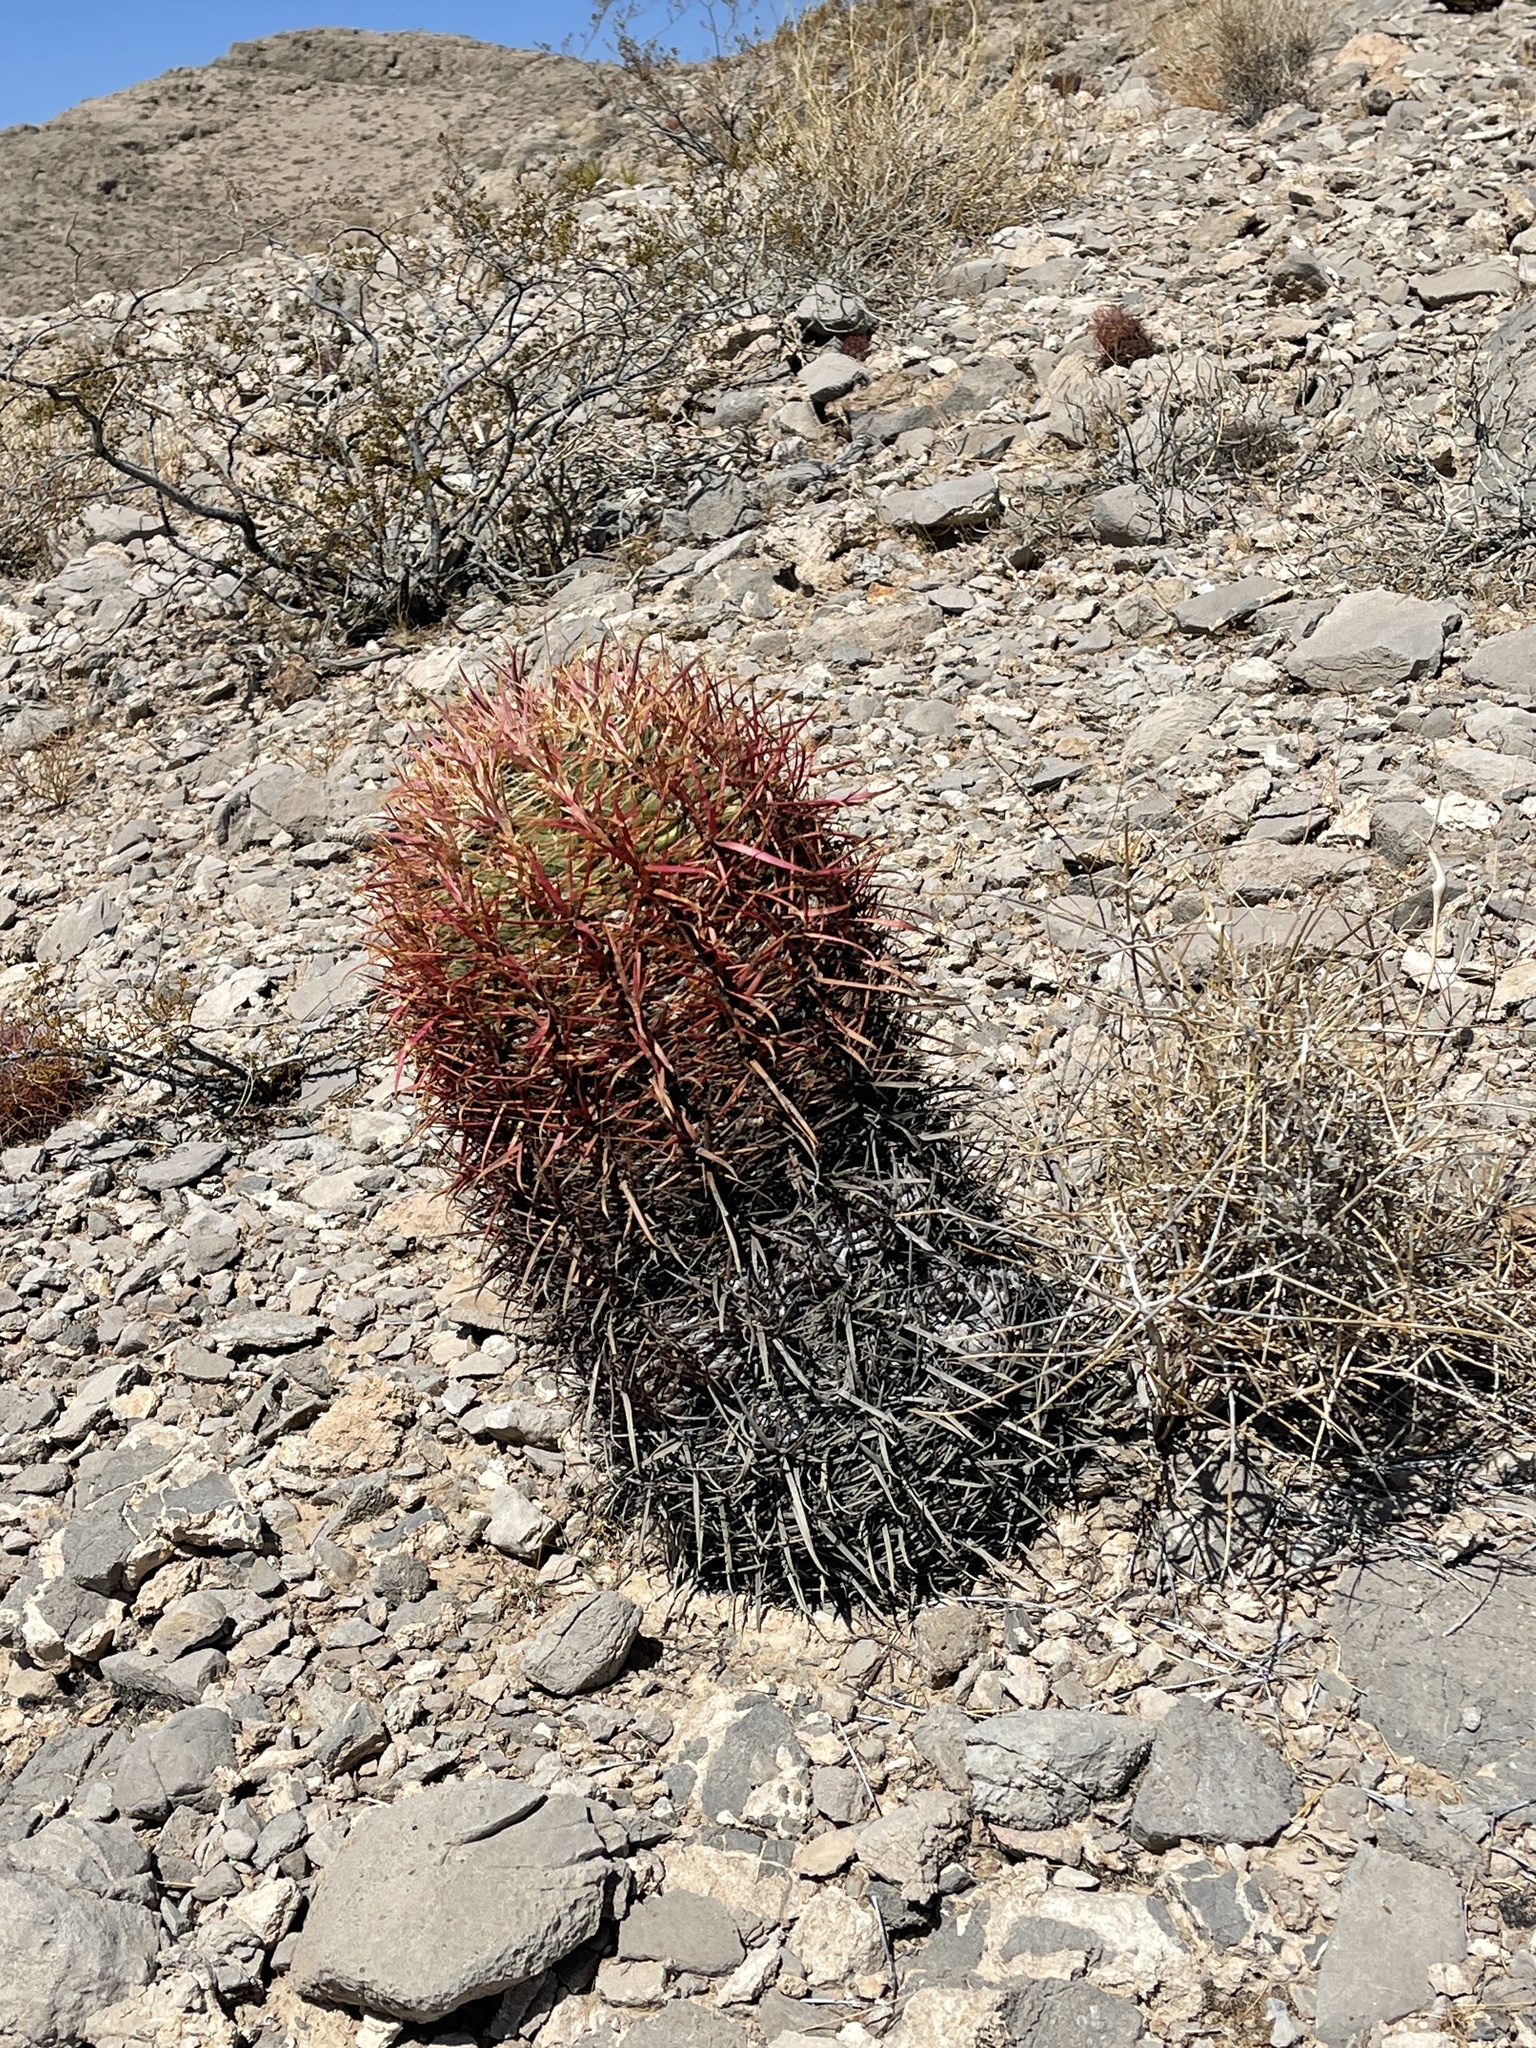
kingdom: Plantae
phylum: Tracheophyta
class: Magnoliopsida
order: Caryophyllales
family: Cactaceae
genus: Ferocactus
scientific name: Ferocactus cylindraceus
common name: California barrel cactus
